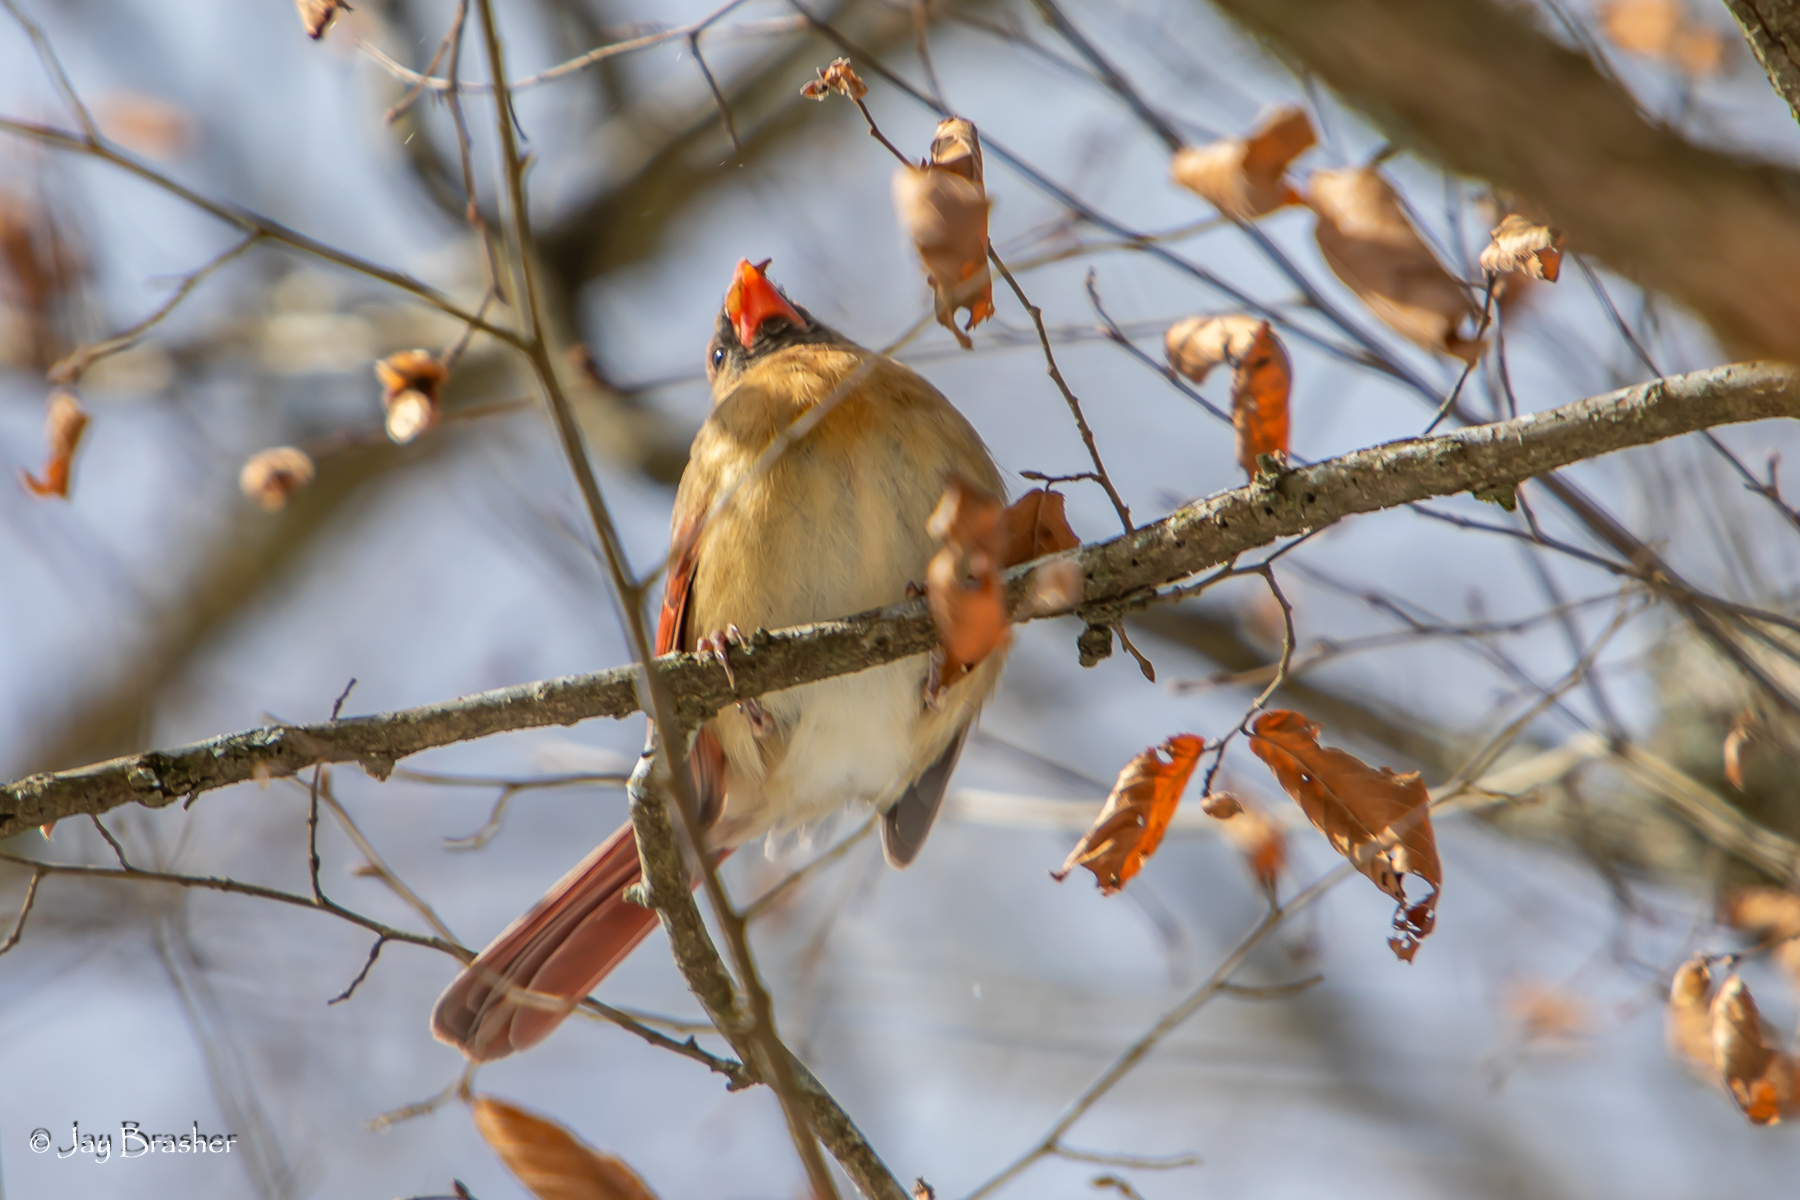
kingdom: Animalia
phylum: Chordata
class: Aves
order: Passeriformes
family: Cardinalidae
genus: Cardinalis
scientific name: Cardinalis cardinalis
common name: Northern cardinal
